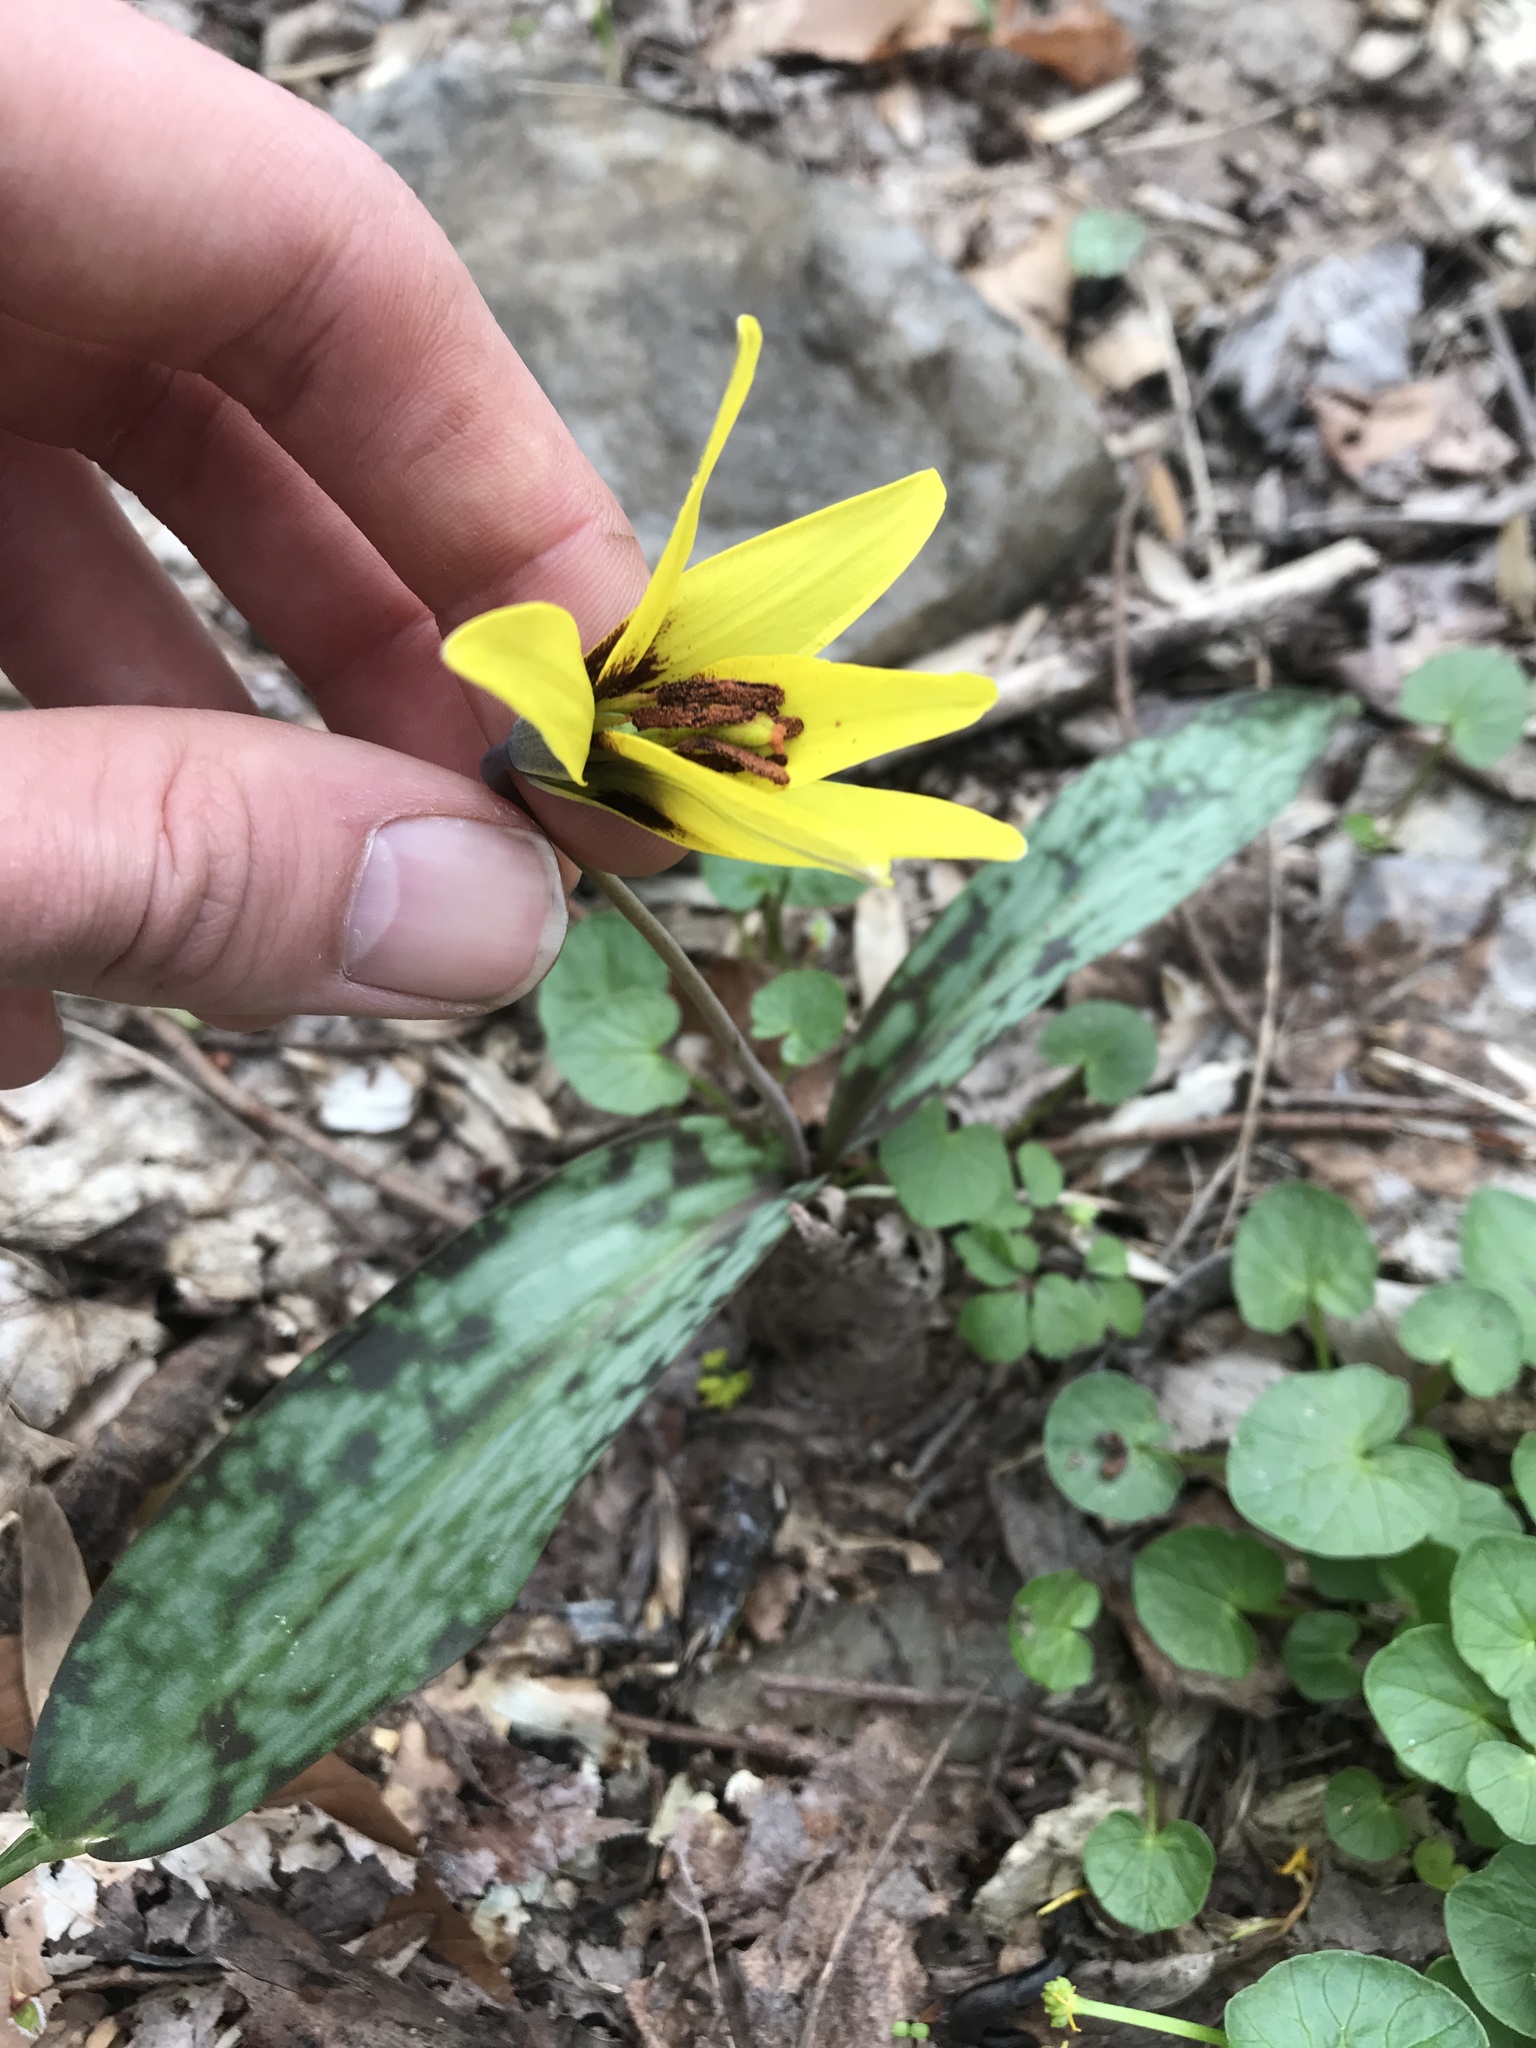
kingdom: Plantae
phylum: Tracheophyta
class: Liliopsida
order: Liliales
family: Liliaceae
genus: Erythronium
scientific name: Erythronium americanum
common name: Yellow adder's-tongue
